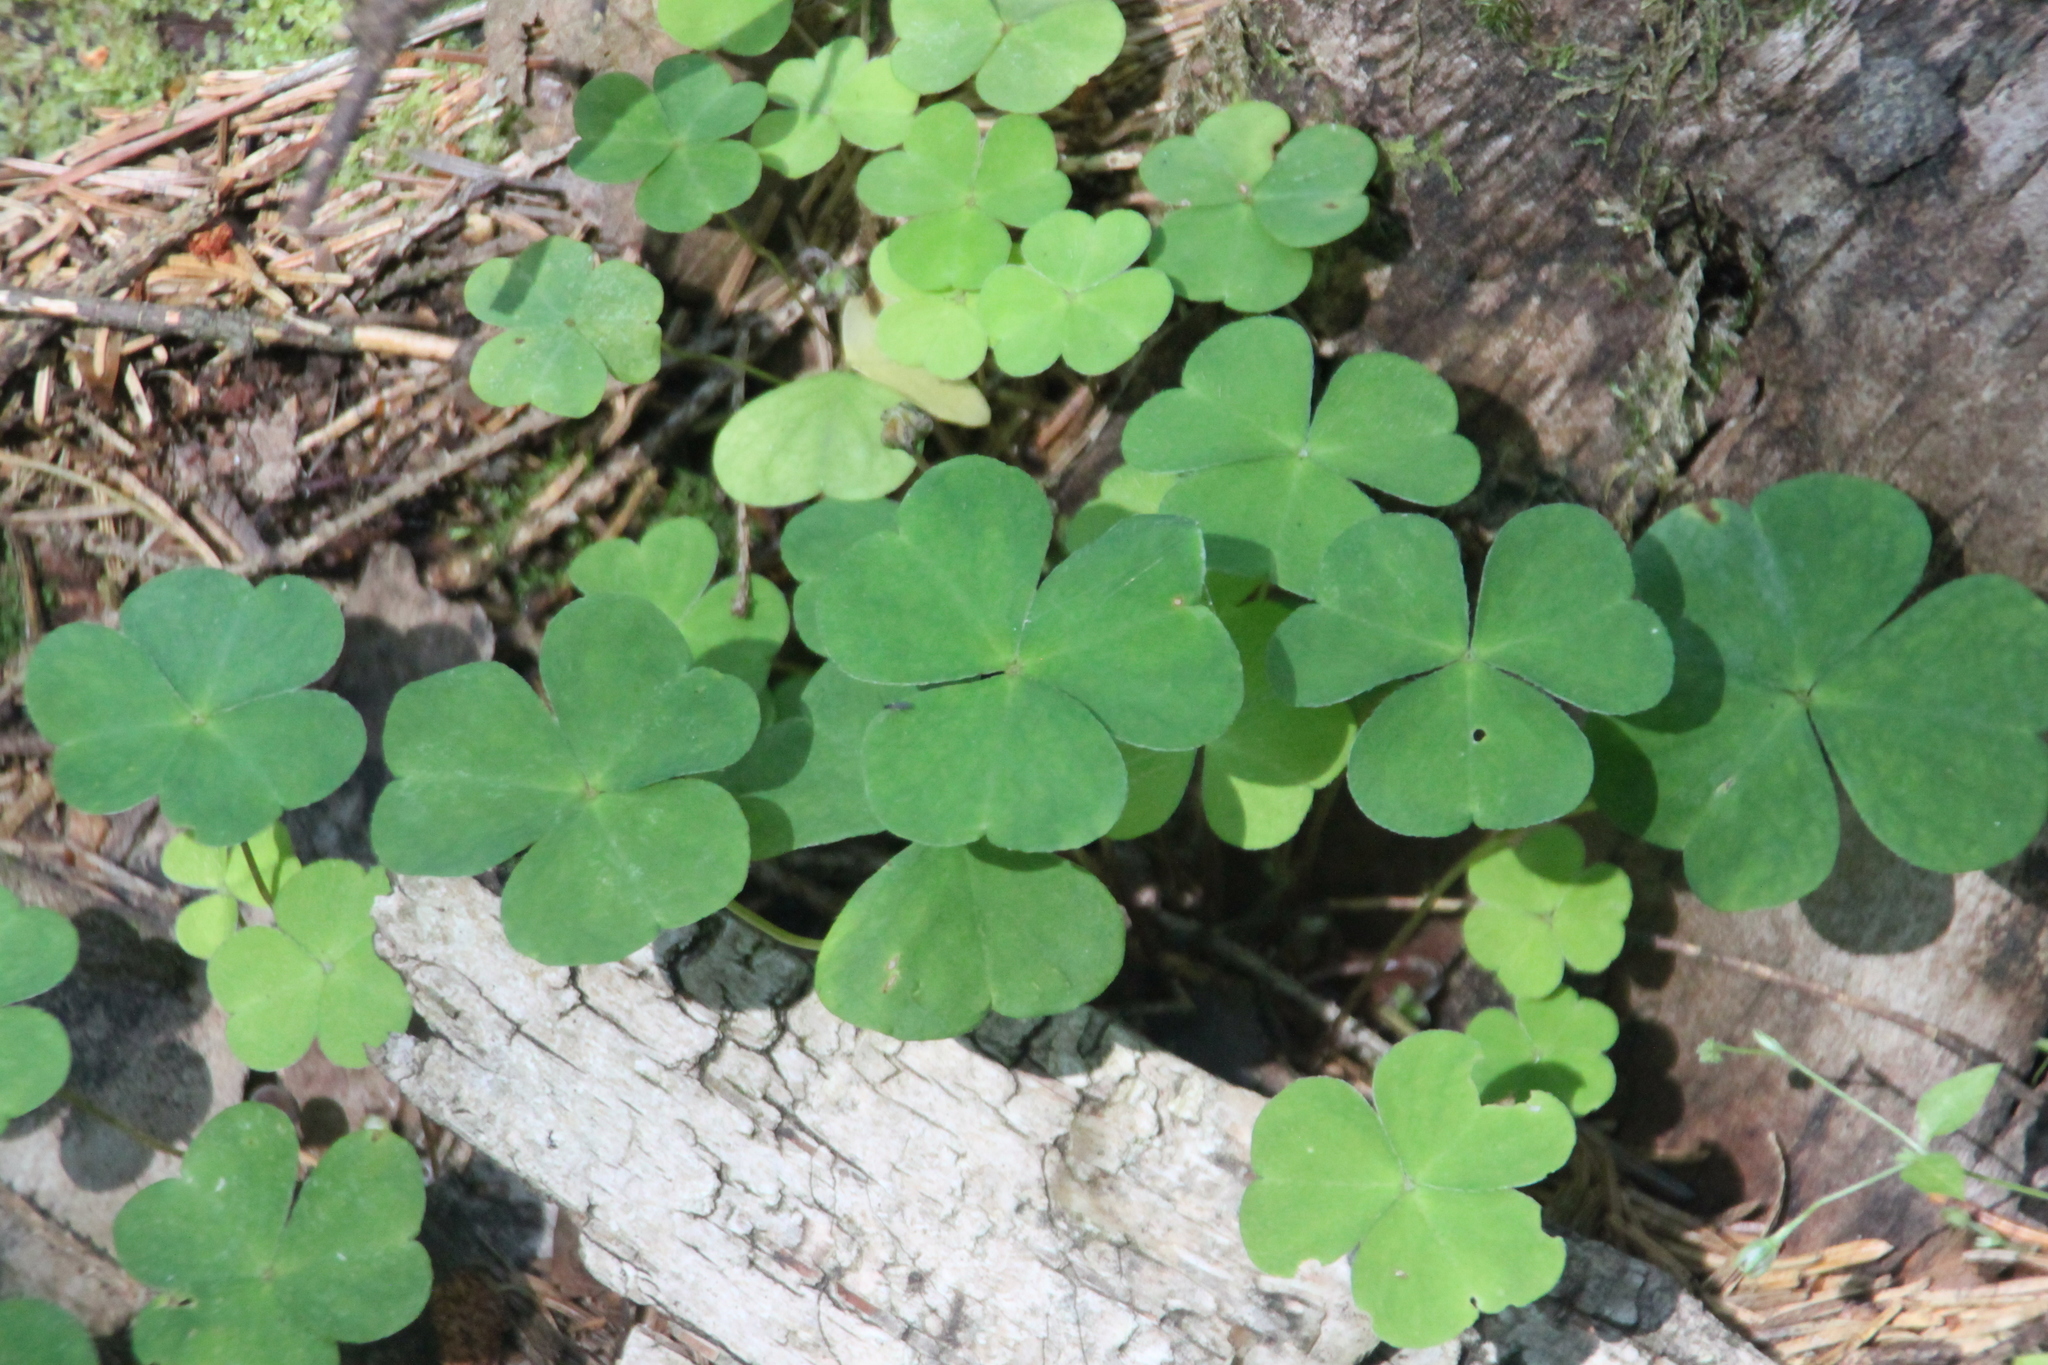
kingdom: Plantae
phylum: Tracheophyta
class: Magnoliopsida
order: Oxalidales
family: Oxalidaceae
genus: Oxalis
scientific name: Oxalis acetosella
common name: Wood-sorrel
